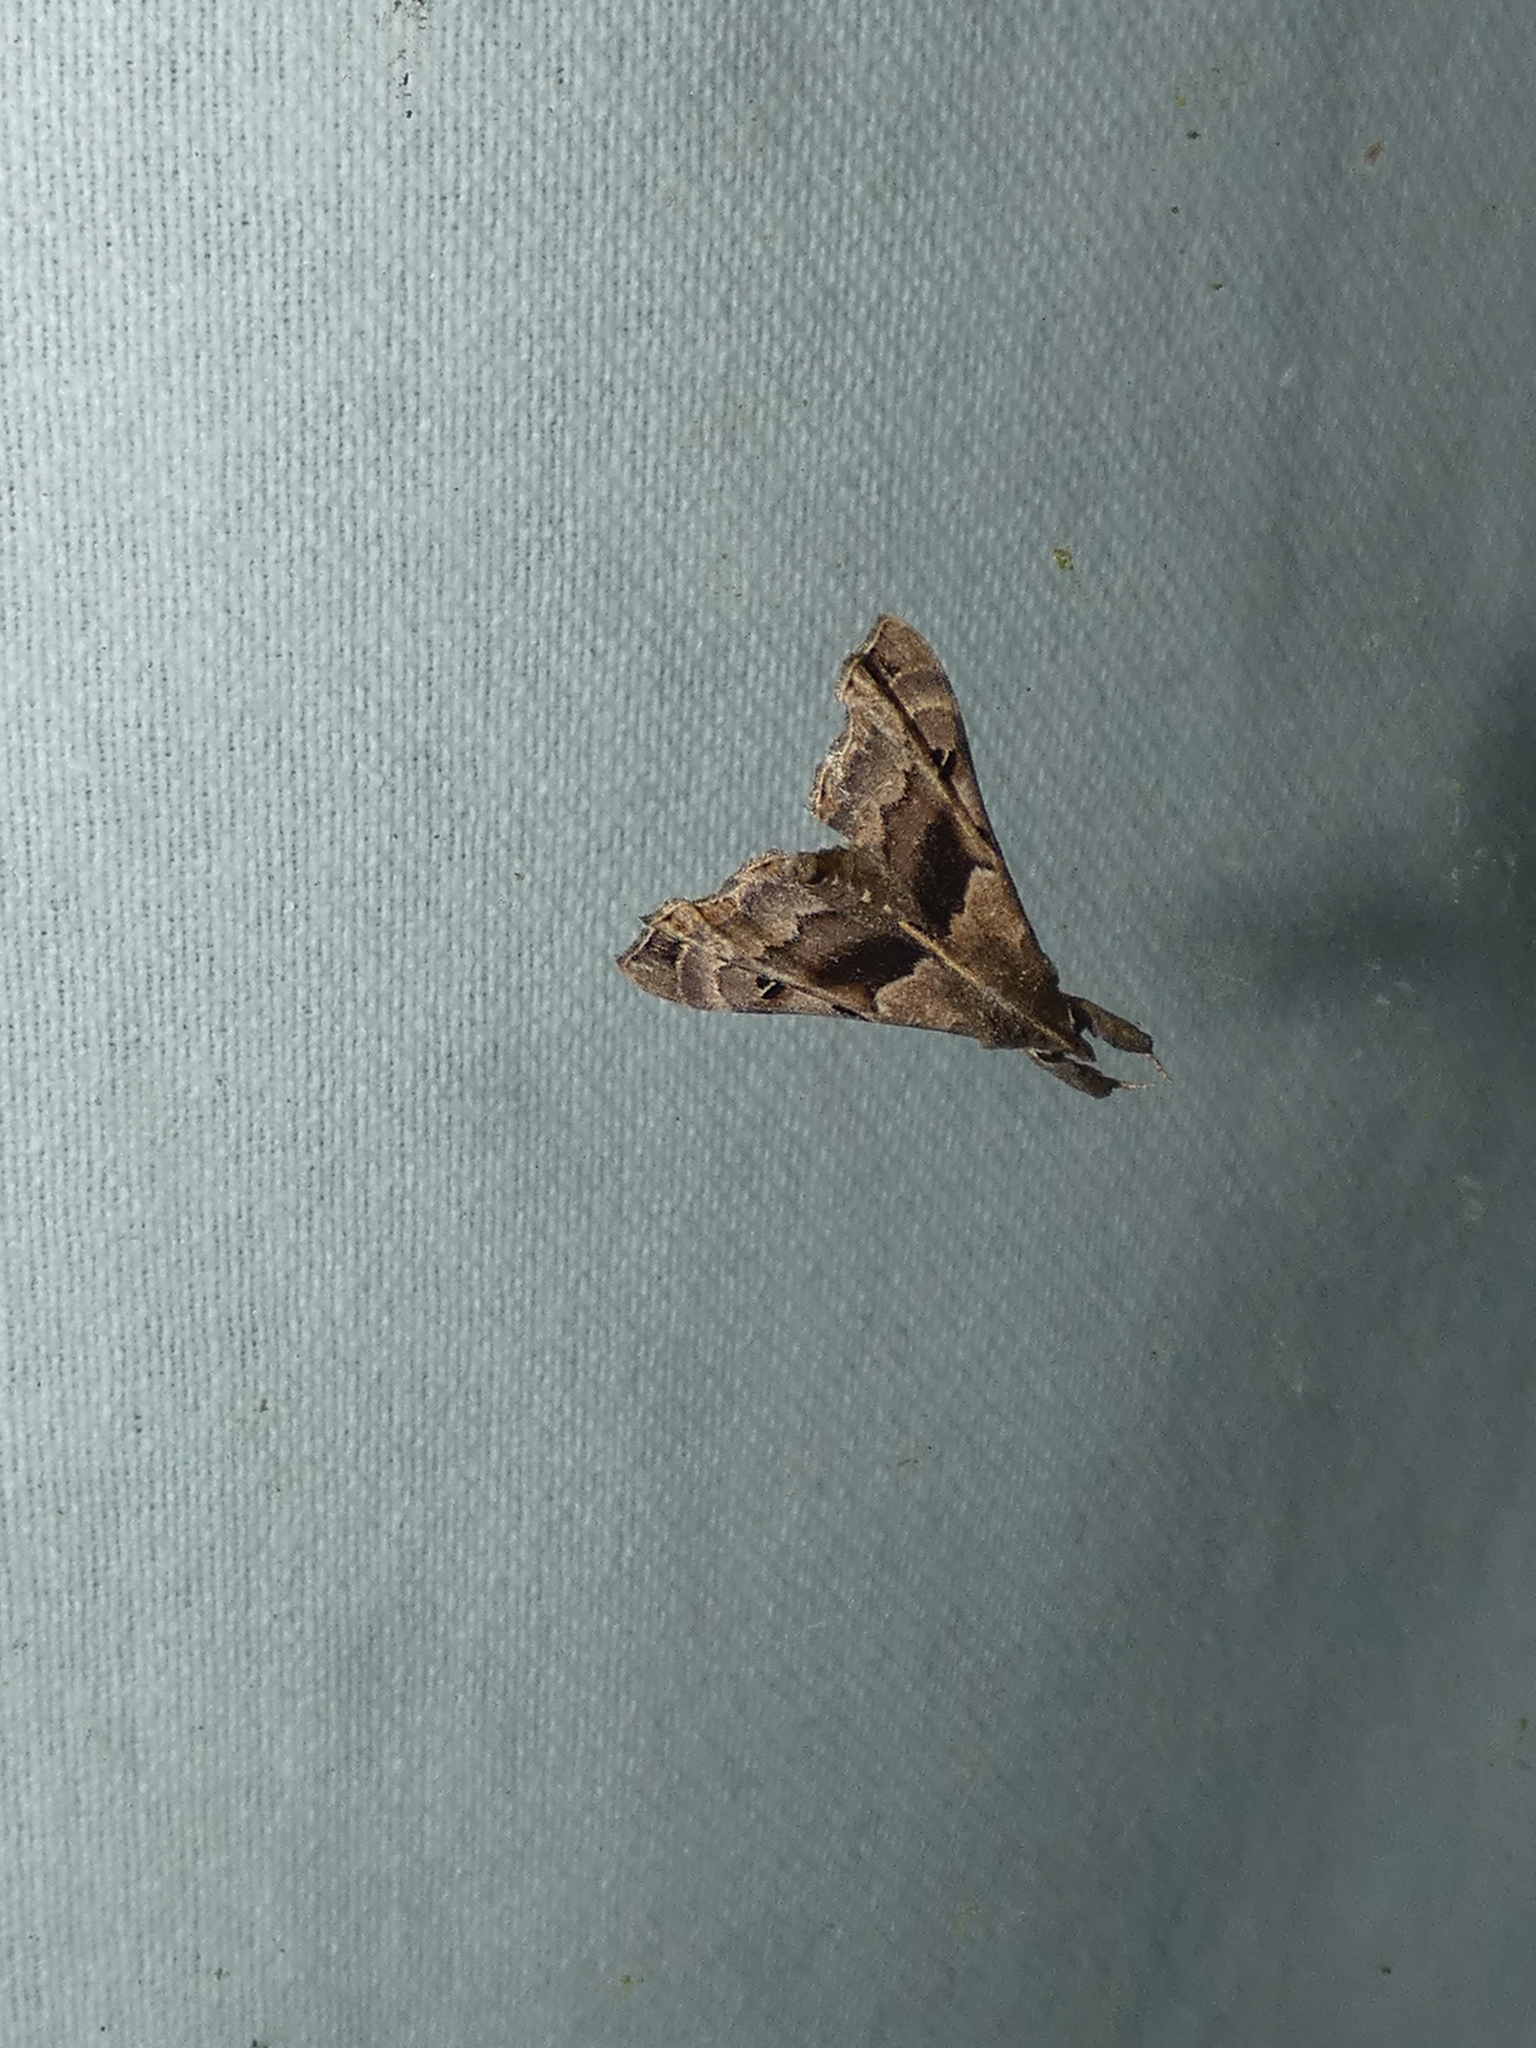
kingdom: Animalia
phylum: Arthropoda
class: Insecta
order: Lepidoptera
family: Erebidae
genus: Palthis
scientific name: Palthis asopialis
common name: Faint-spotted palthis moth
